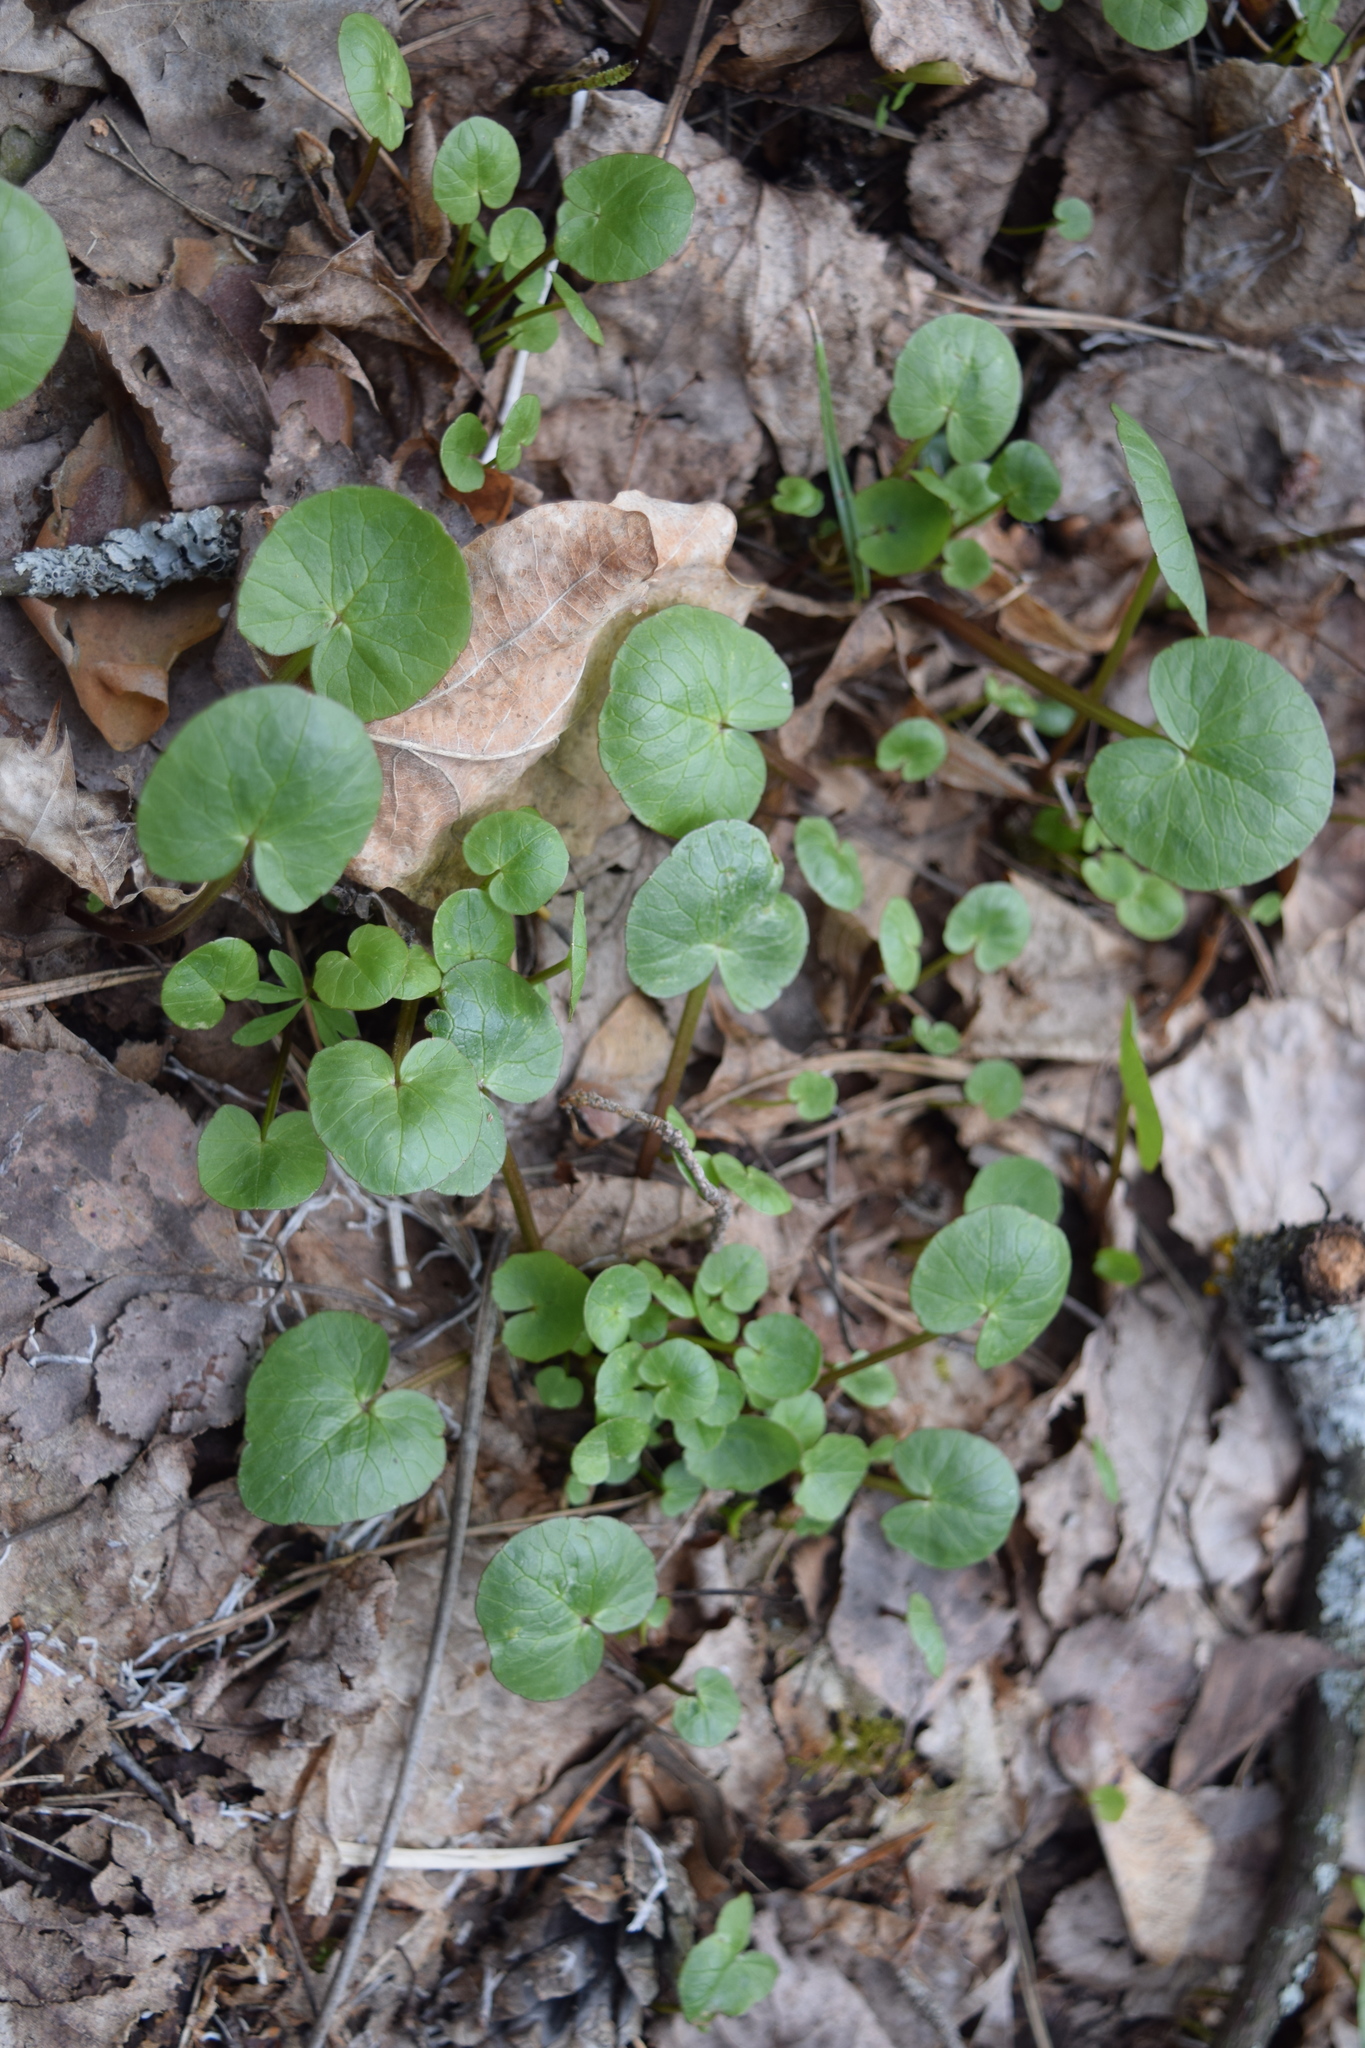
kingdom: Plantae
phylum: Tracheophyta
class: Magnoliopsida
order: Ranunculales
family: Ranunculaceae
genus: Ficaria
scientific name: Ficaria verna
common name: Lesser celandine
